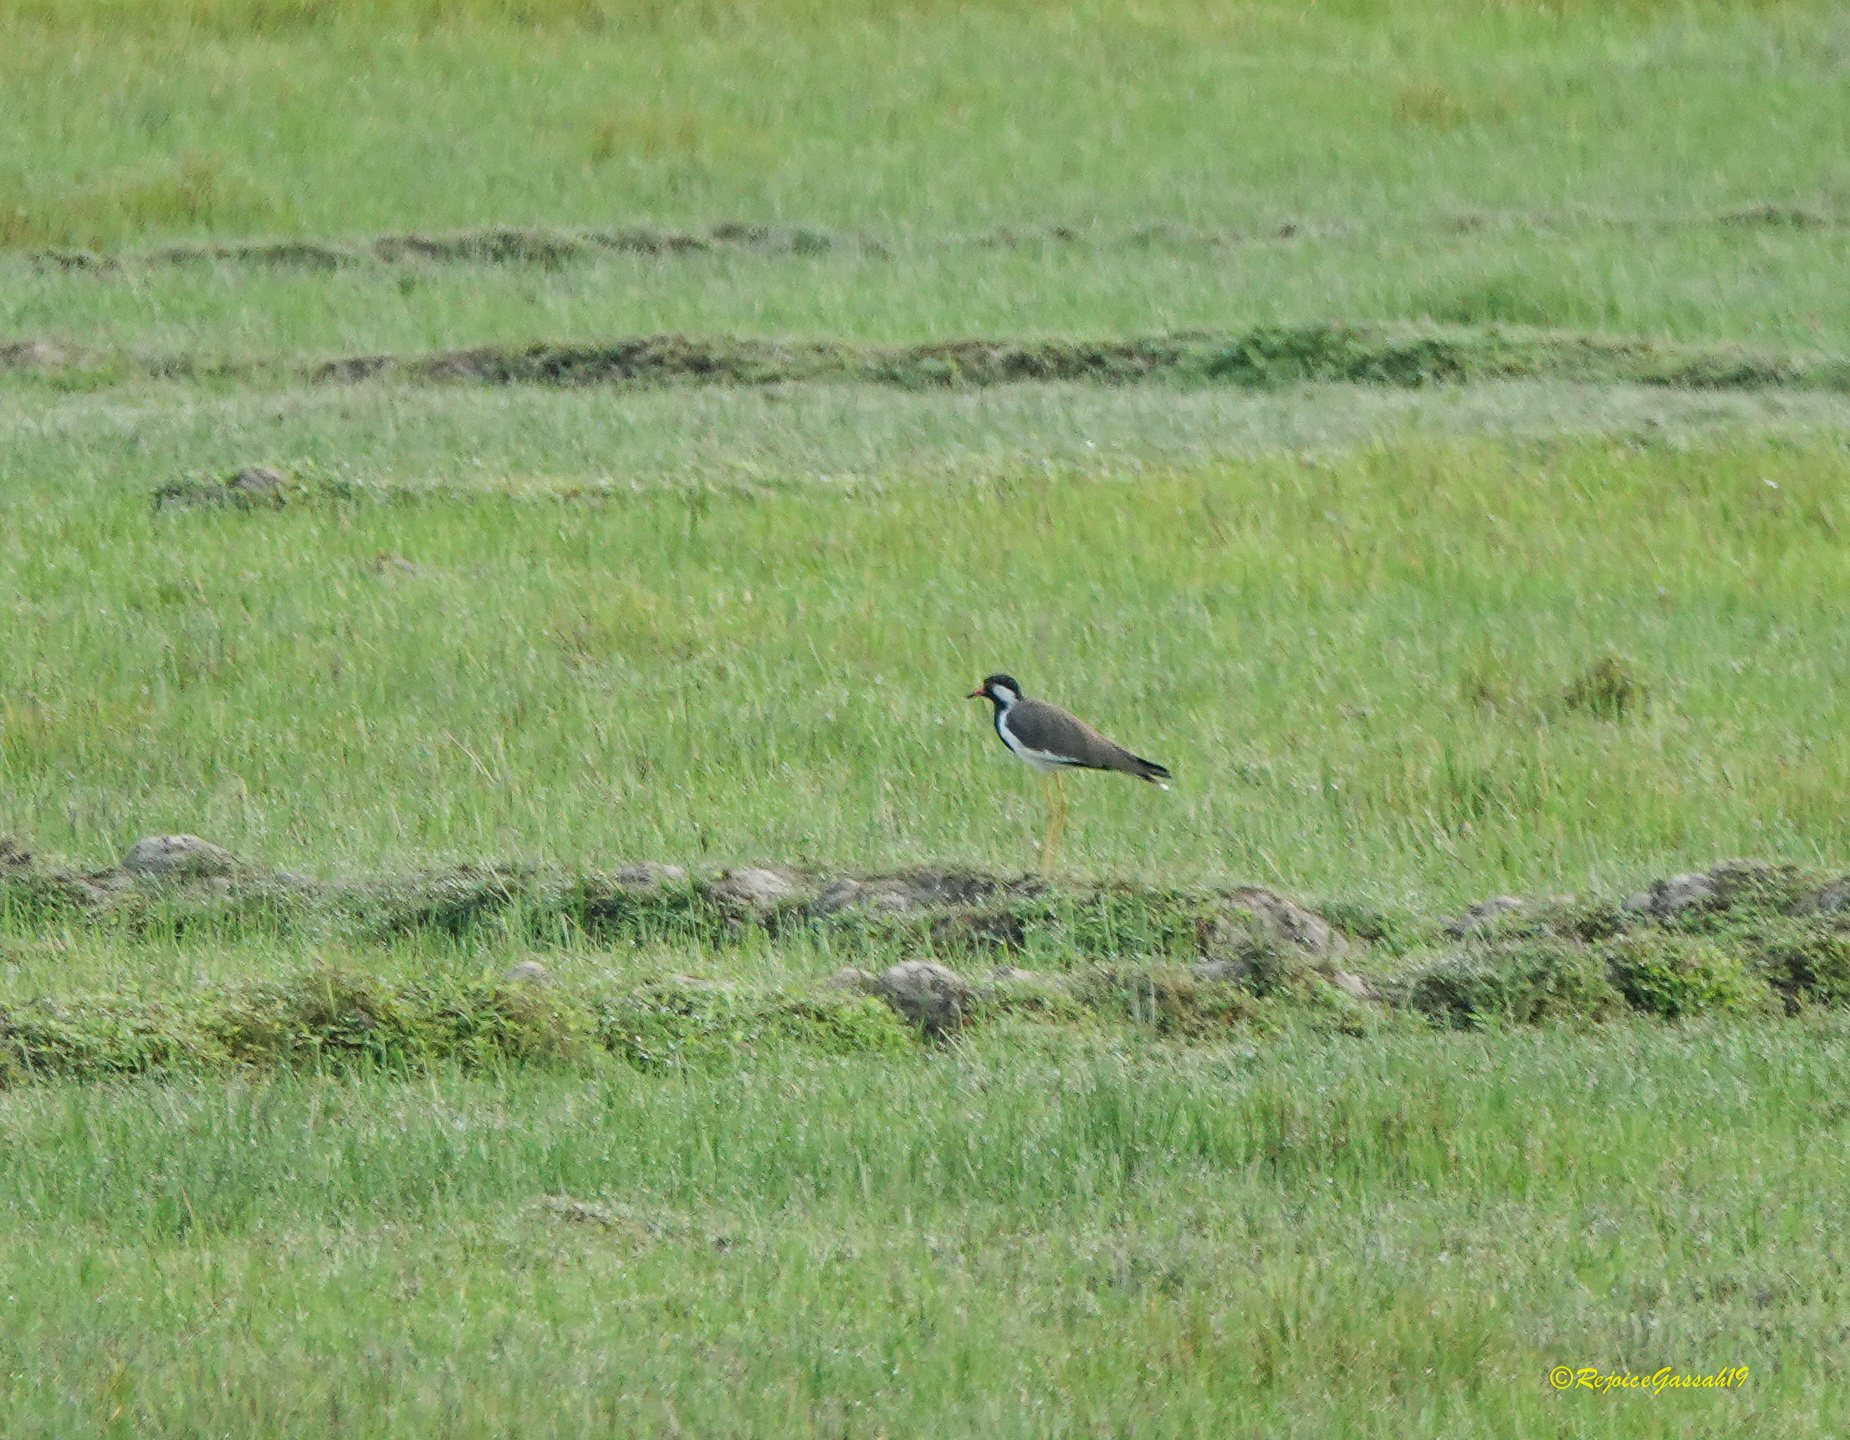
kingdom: Animalia
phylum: Chordata
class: Aves
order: Charadriiformes
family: Charadriidae
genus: Vanellus
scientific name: Vanellus indicus
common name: Red-wattled lapwing
